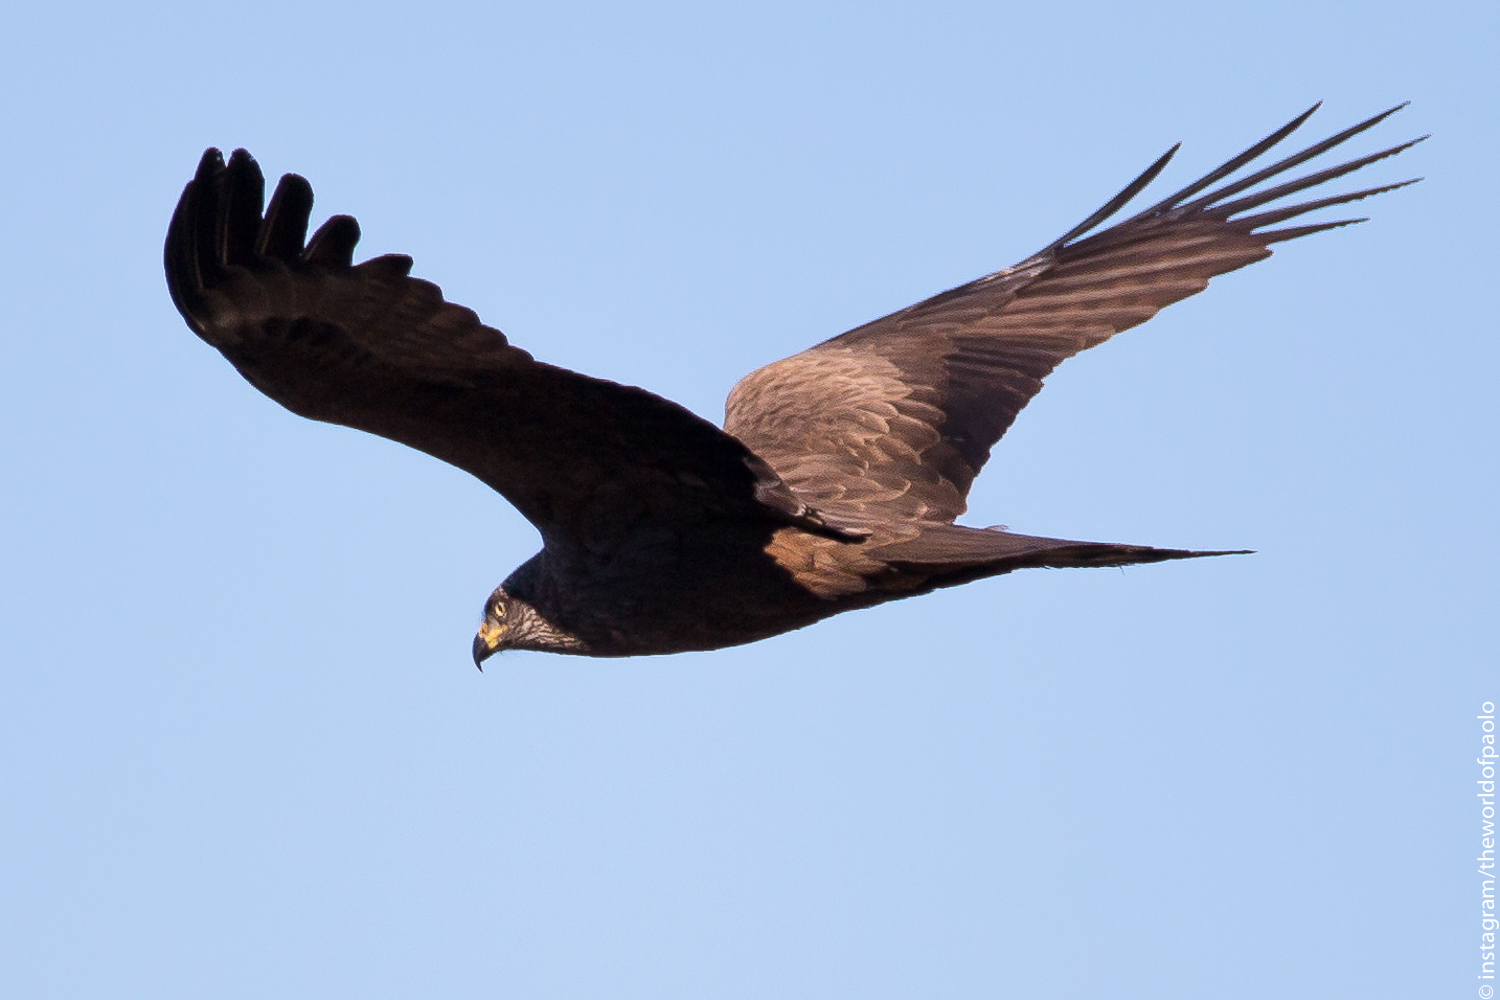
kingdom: Animalia
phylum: Chordata
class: Aves
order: Accipitriformes
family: Accipitridae
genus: Milvus
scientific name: Milvus migrans
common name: Black kite
